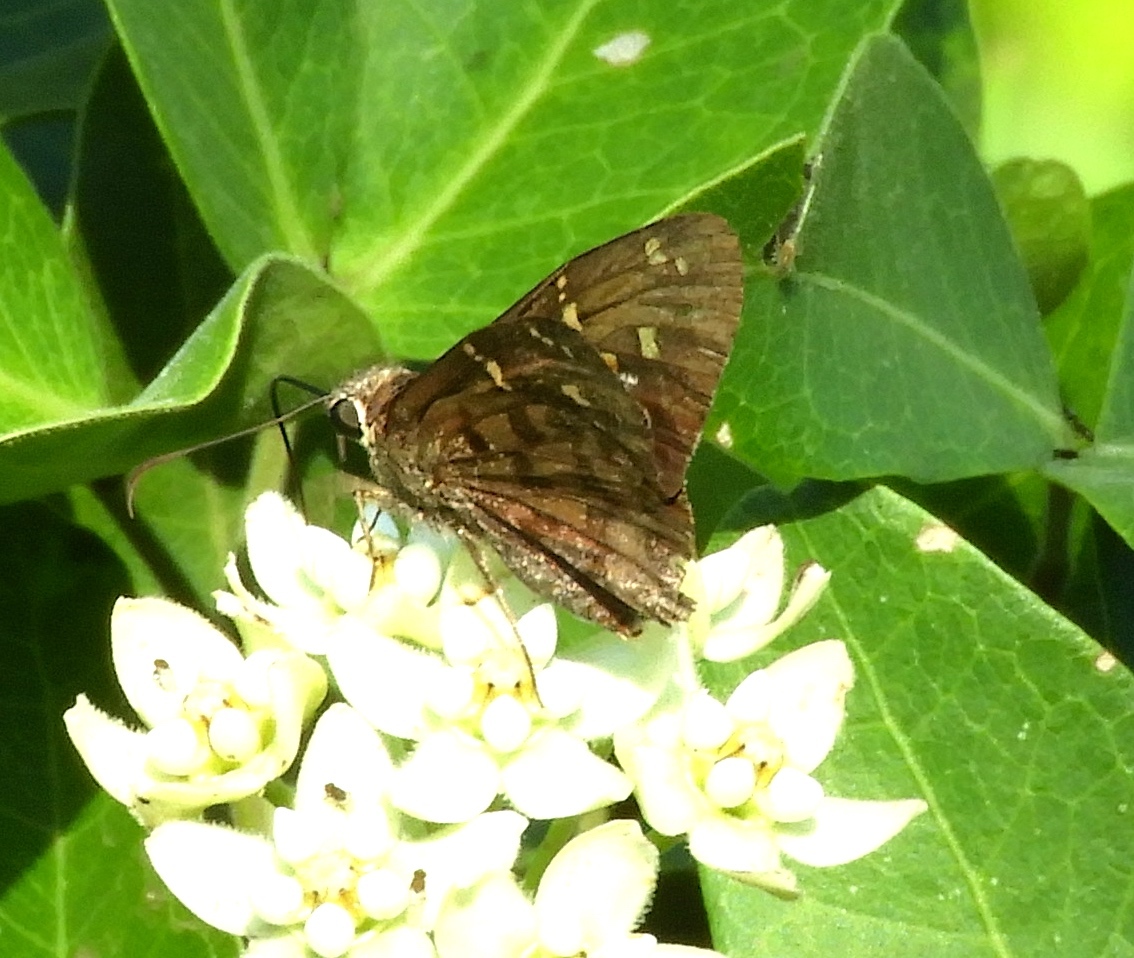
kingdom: Animalia
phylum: Arthropoda
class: Insecta
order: Lepidoptera
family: Hesperiidae
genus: Thorybes
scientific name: Thorybes
